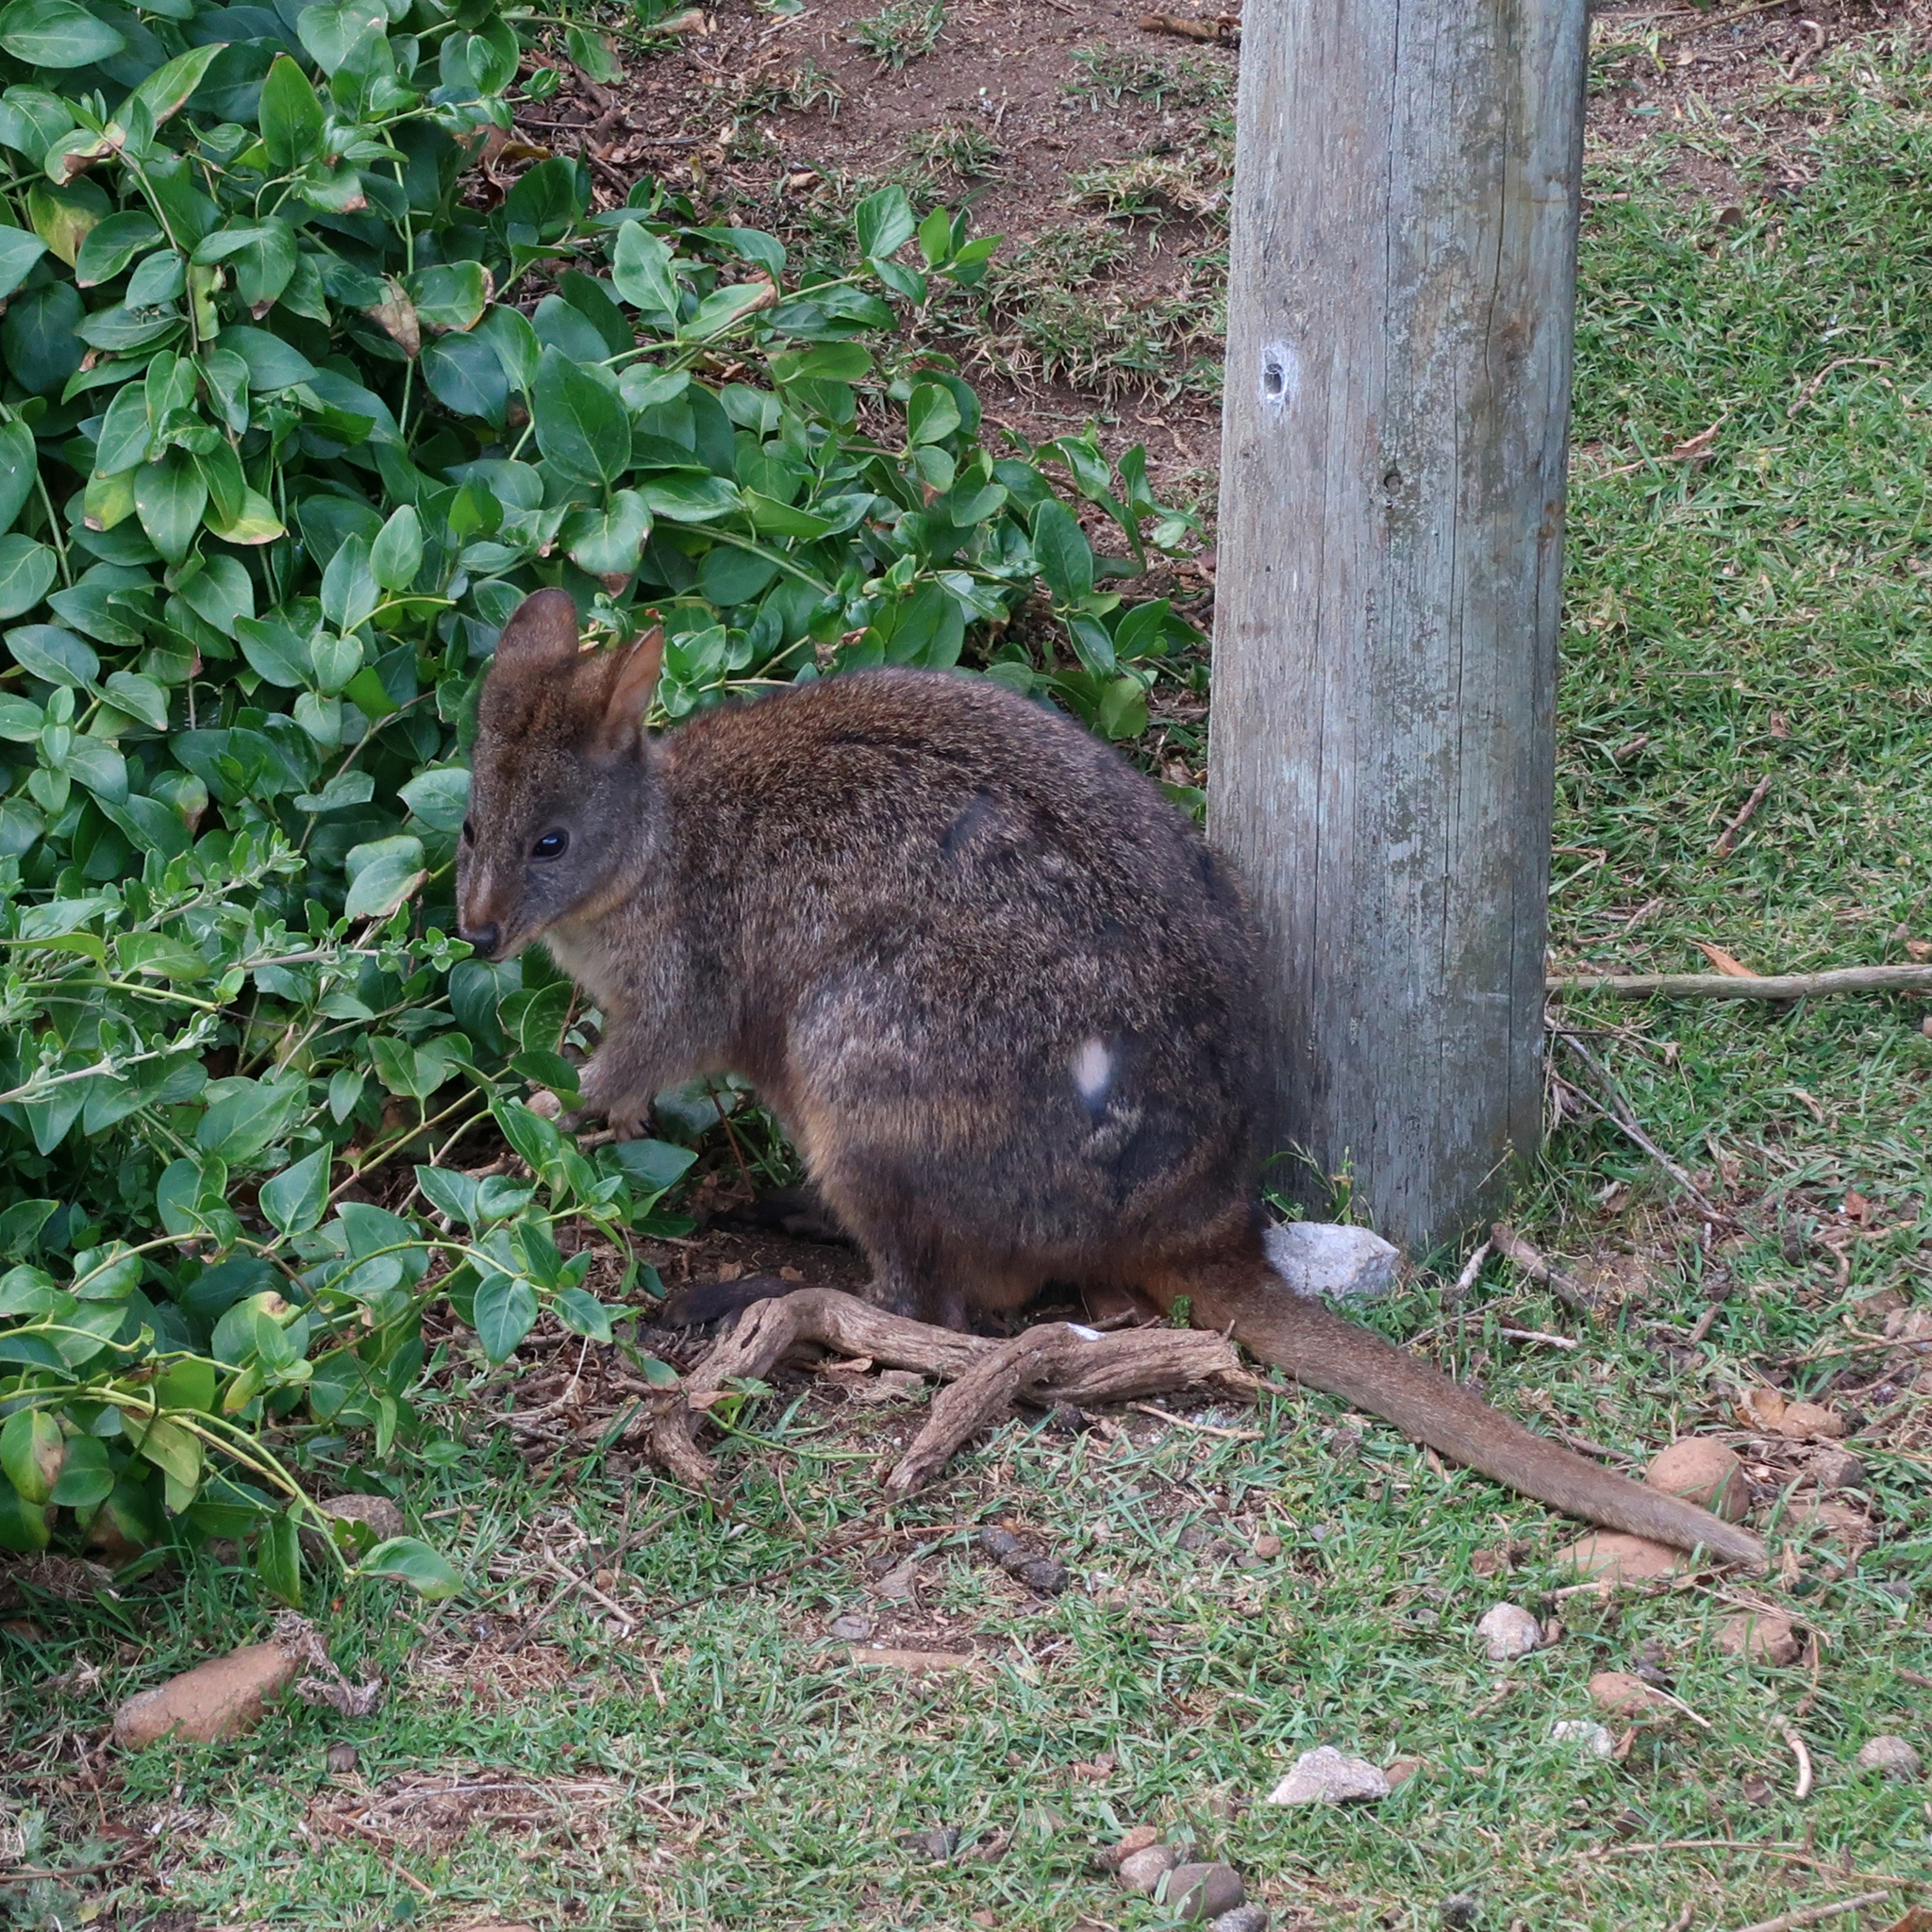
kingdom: Animalia
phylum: Chordata
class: Mammalia
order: Diprotodontia
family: Macropodidae
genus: Thylogale
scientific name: Thylogale billardierii
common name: Tasmanian pademelon
